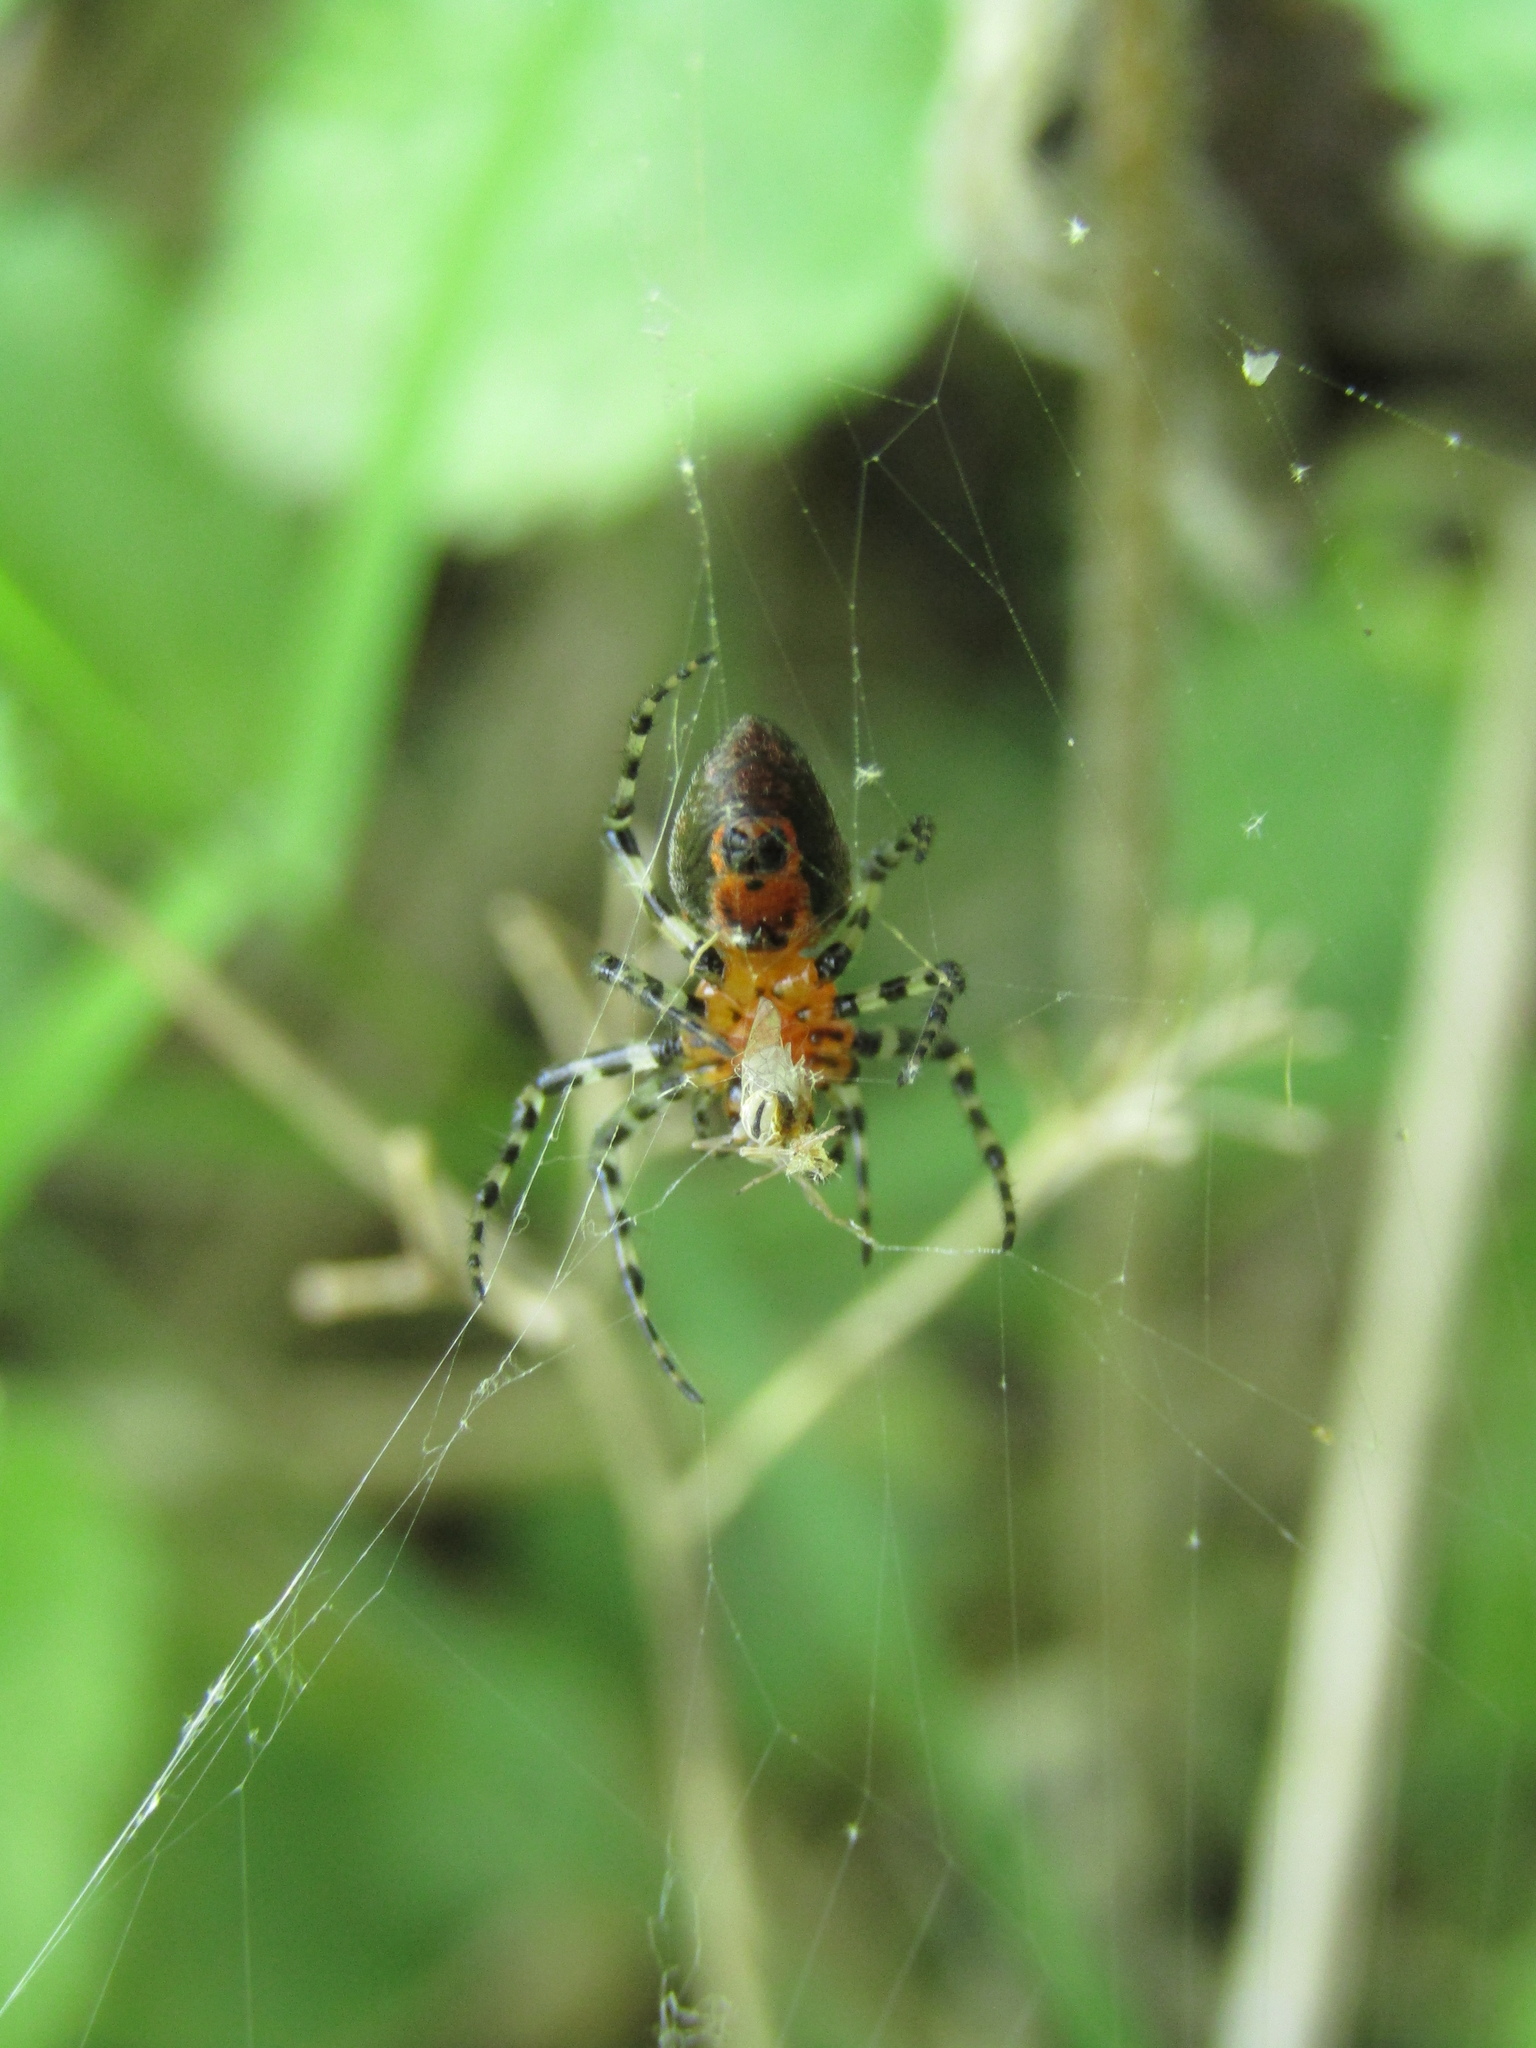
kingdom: Animalia
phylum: Arthropoda
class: Arachnida
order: Araneae
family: Araneidae
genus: Alpaida
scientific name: Alpaida gallardoi
